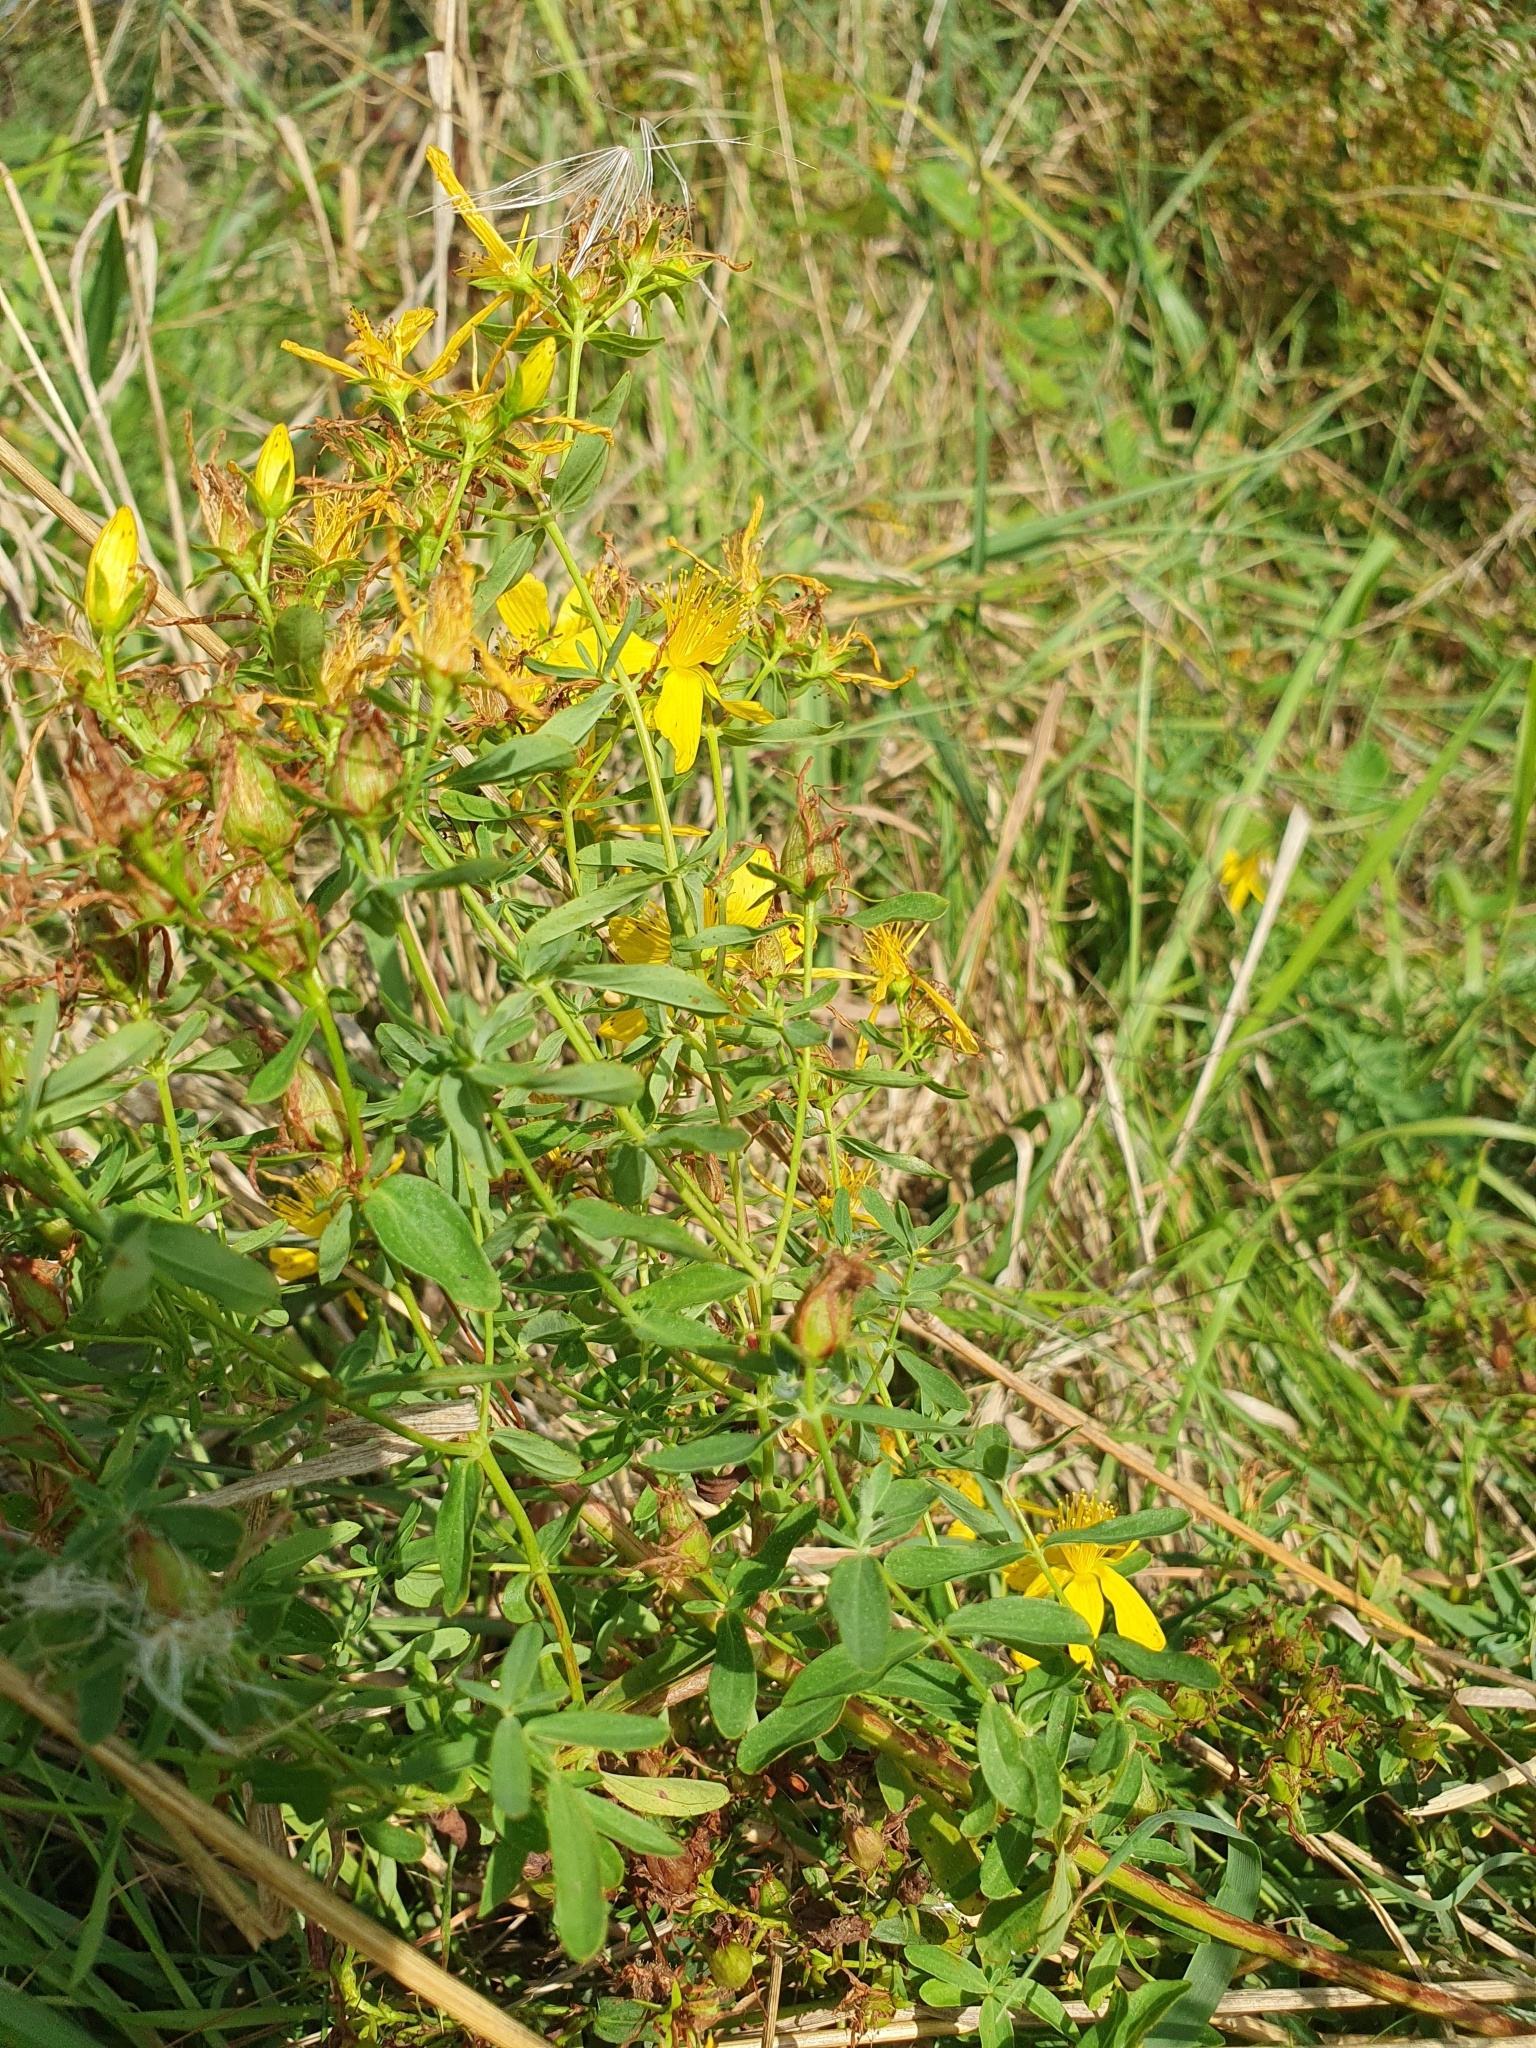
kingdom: Plantae
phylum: Tracheophyta
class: Magnoliopsida
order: Malpighiales
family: Hypericaceae
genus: Hypericum
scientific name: Hypericum perforatum
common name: Common st. johnswort
